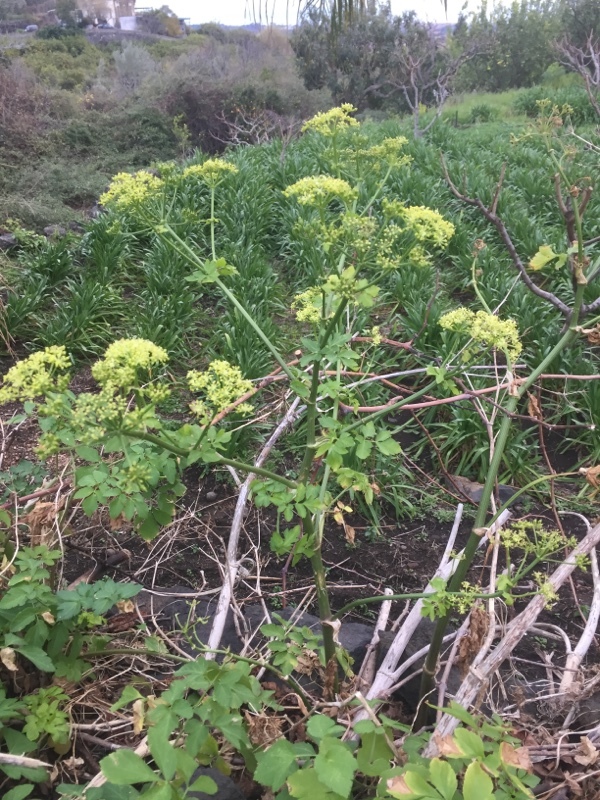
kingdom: Plantae
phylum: Tracheophyta
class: Magnoliopsida
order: Apiales
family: Apiaceae
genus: Smyrnium
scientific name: Smyrnium olusatrum
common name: Alexanders
